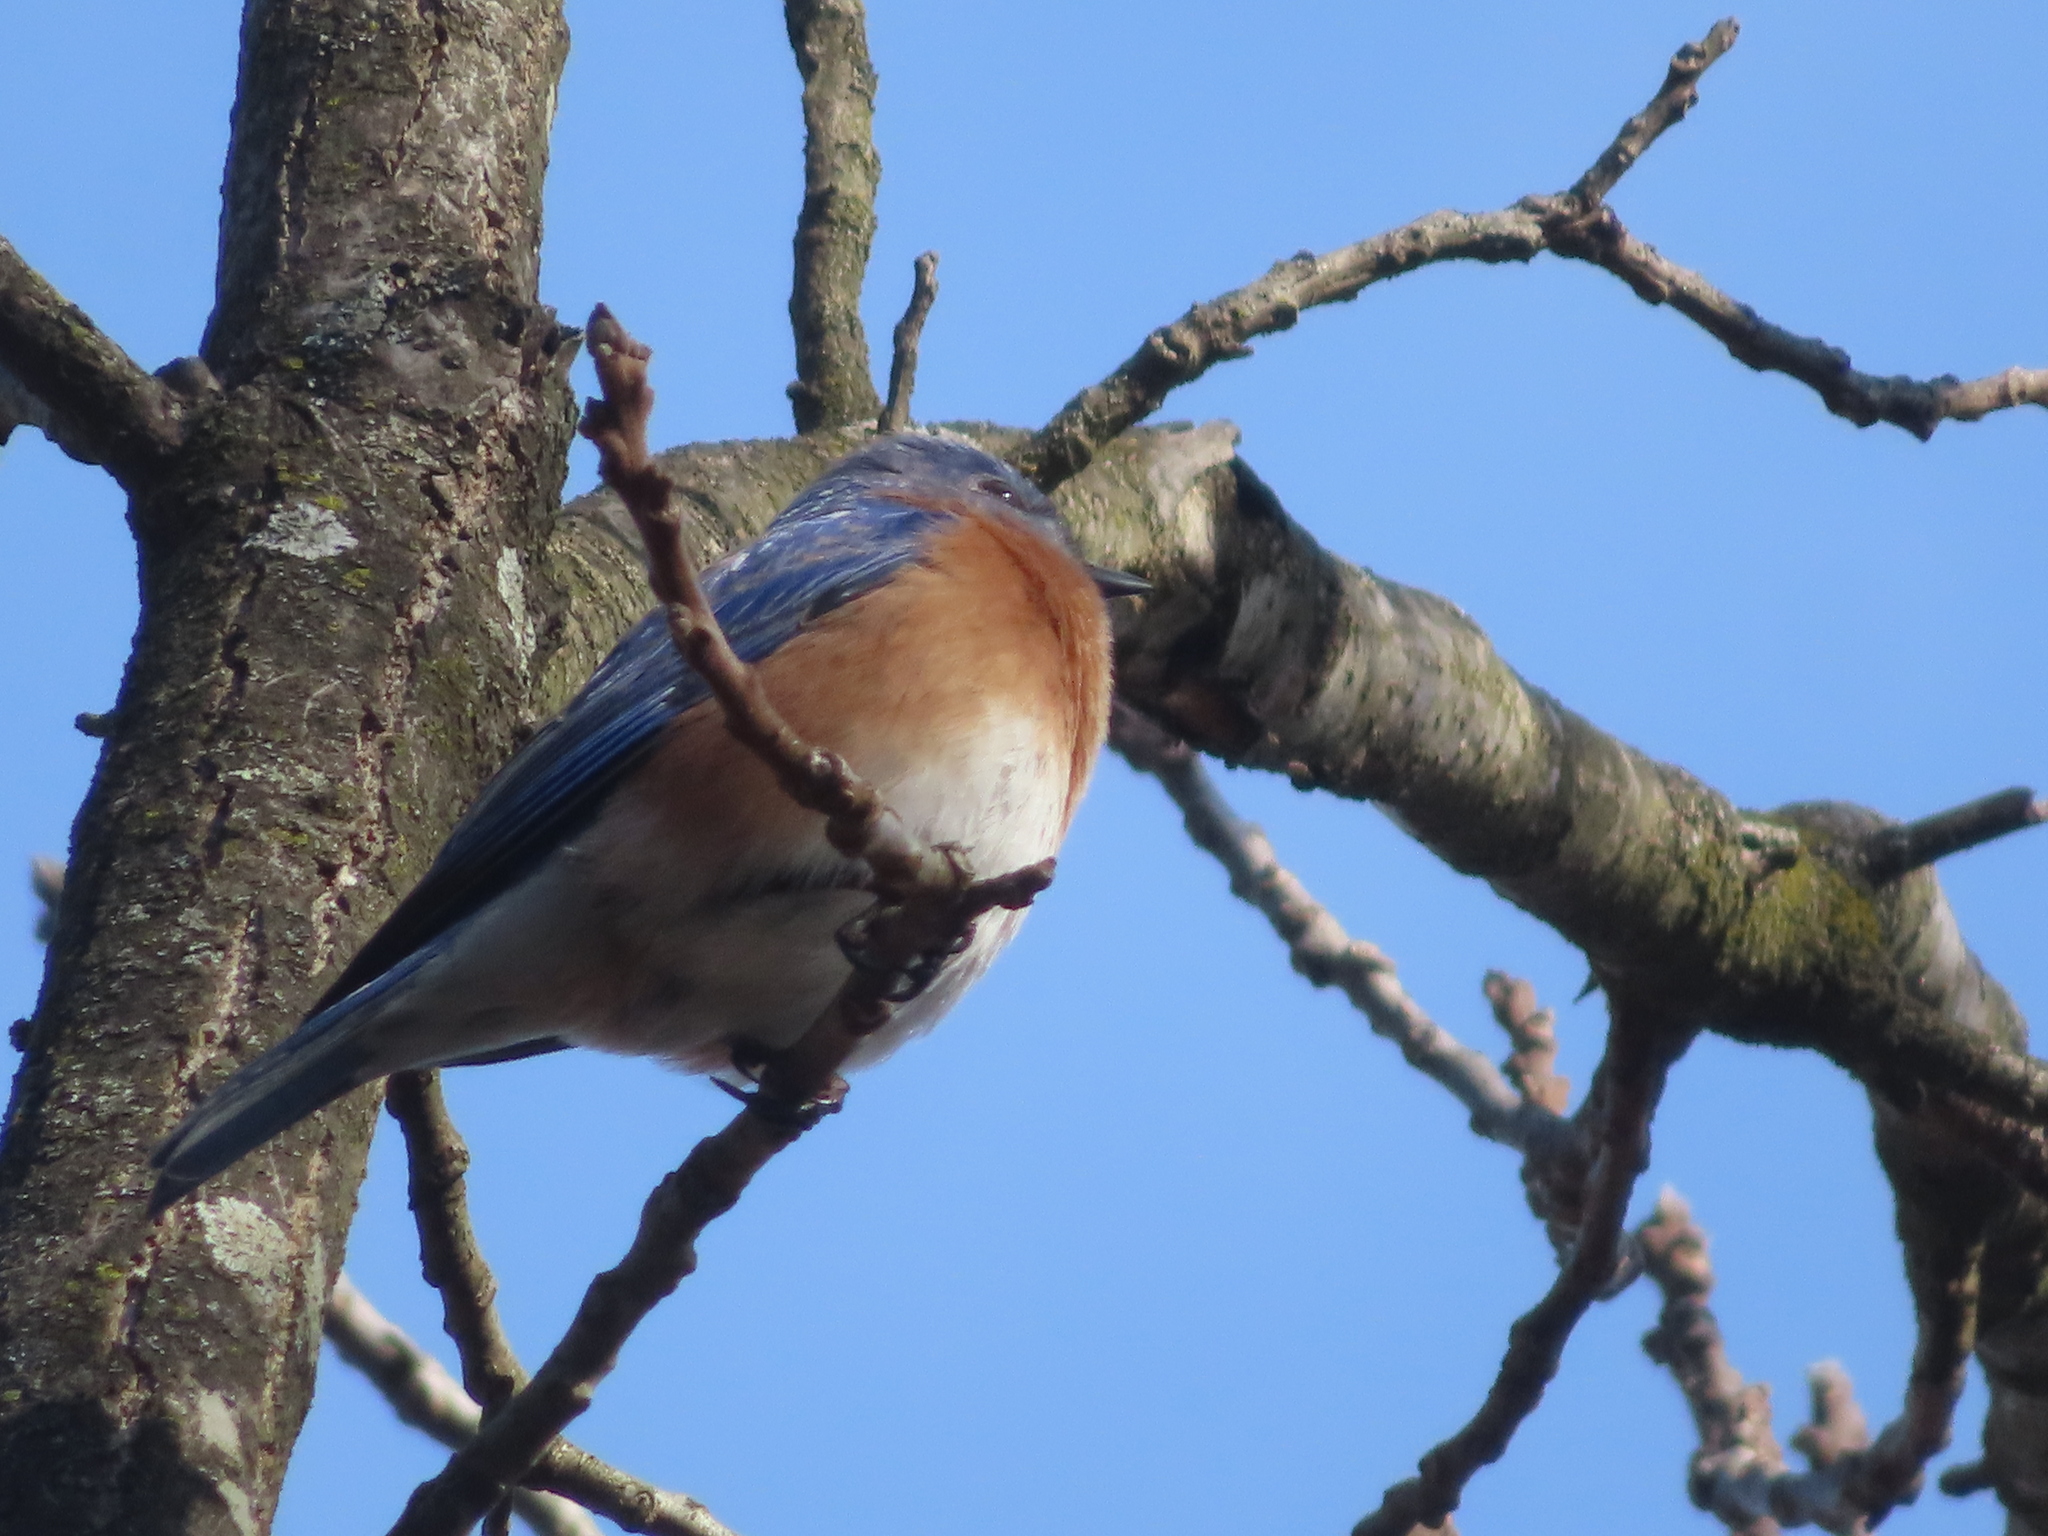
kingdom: Animalia
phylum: Chordata
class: Aves
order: Passeriformes
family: Turdidae
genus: Sialia
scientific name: Sialia sialis
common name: Eastern bluebird
